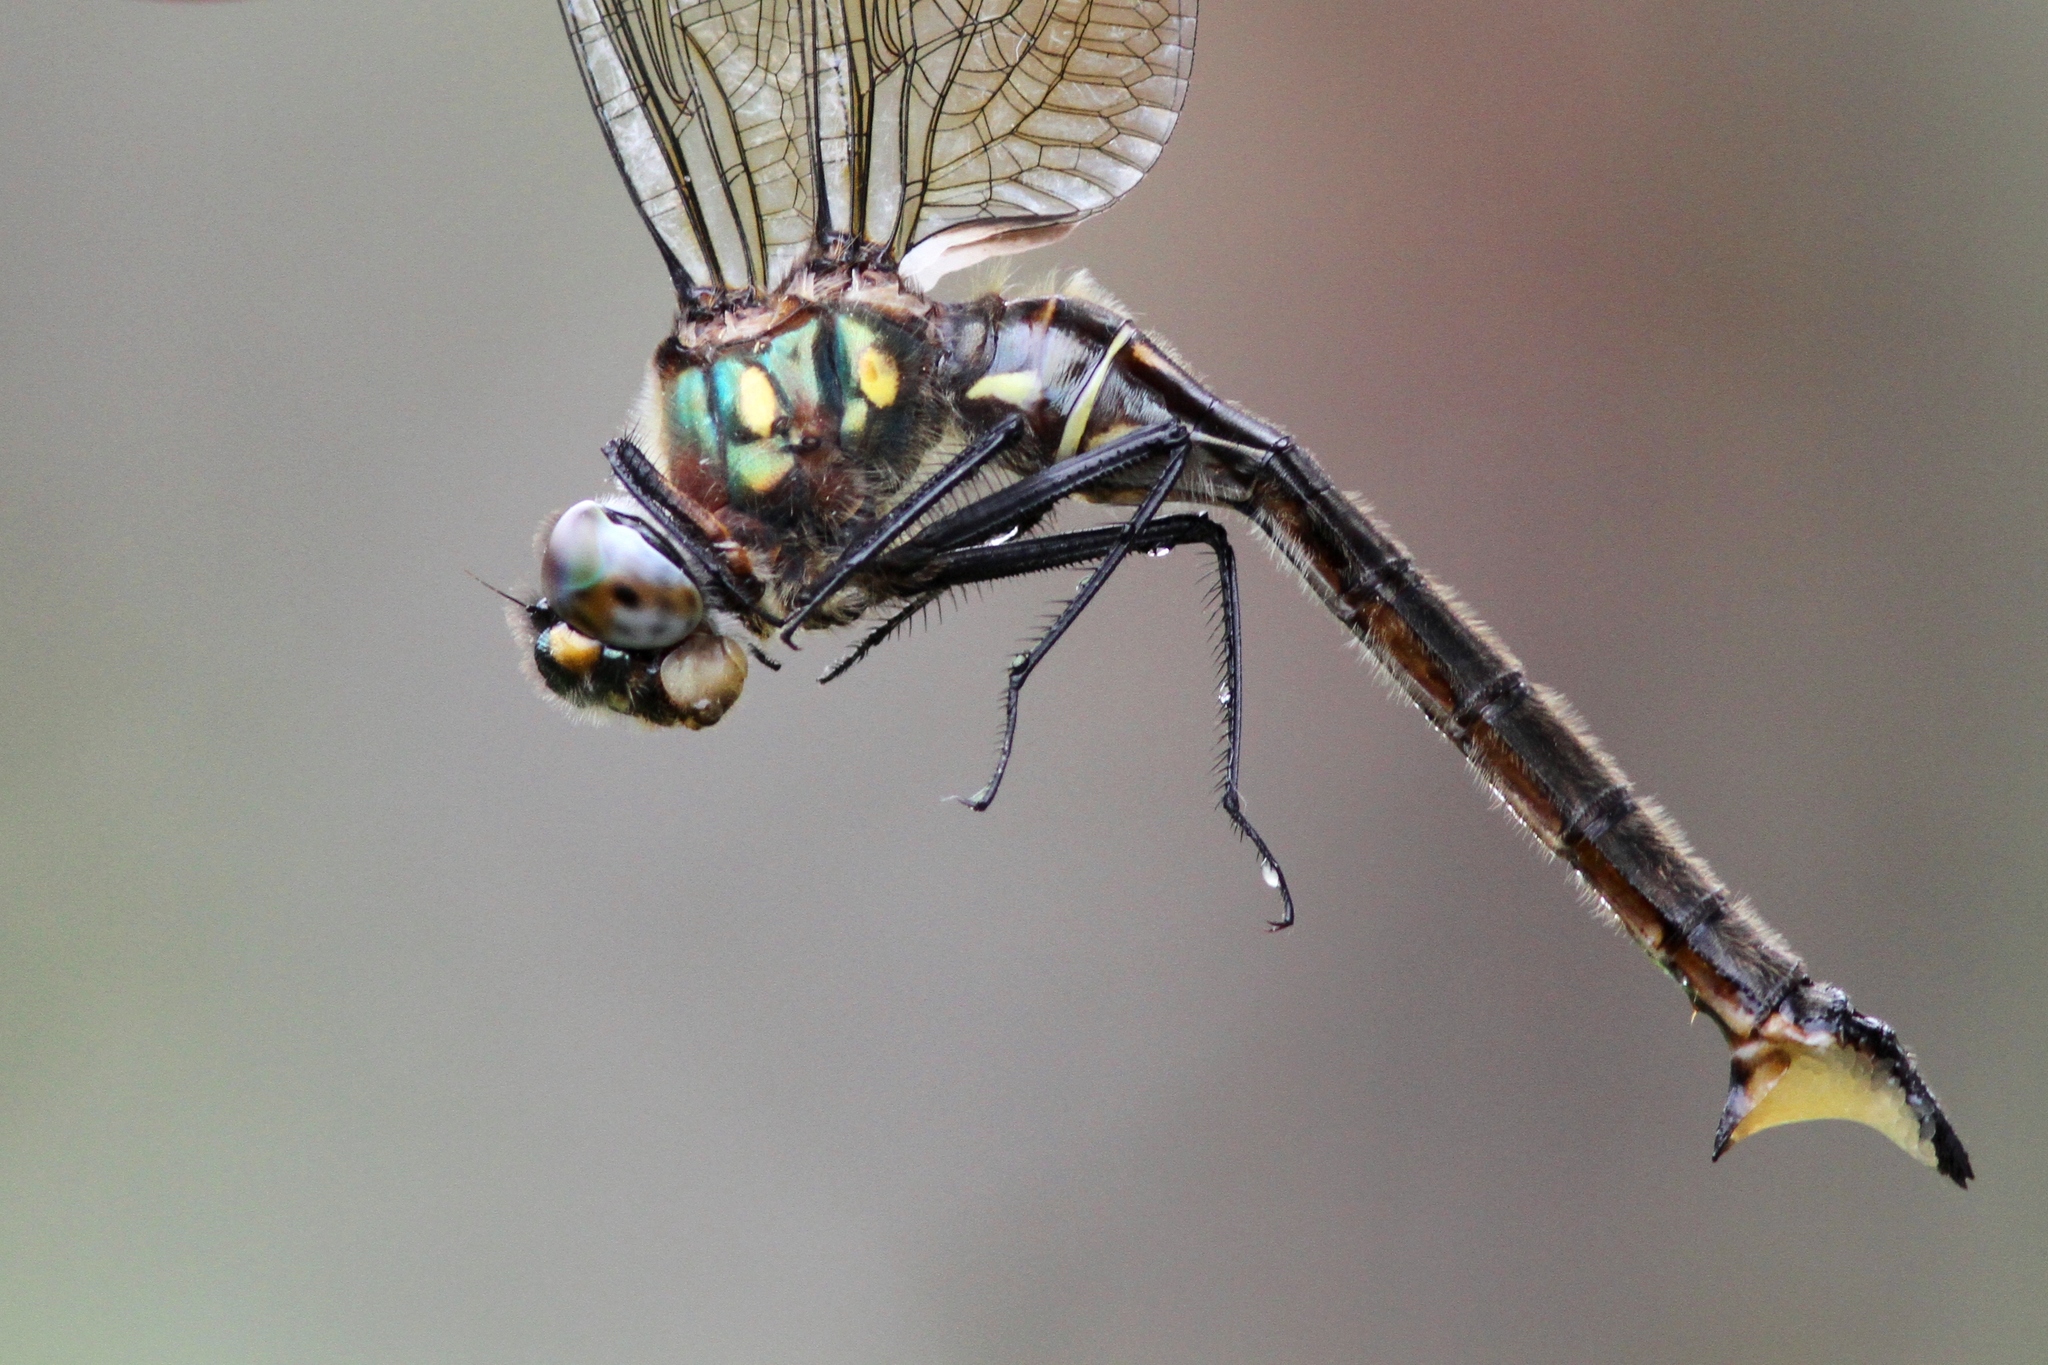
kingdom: Animalia
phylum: Arthropoda
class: Insecta
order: Odonata
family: Corduliidae
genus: Somatochlora
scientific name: Somatochlora minor
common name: Ocellated emerald
